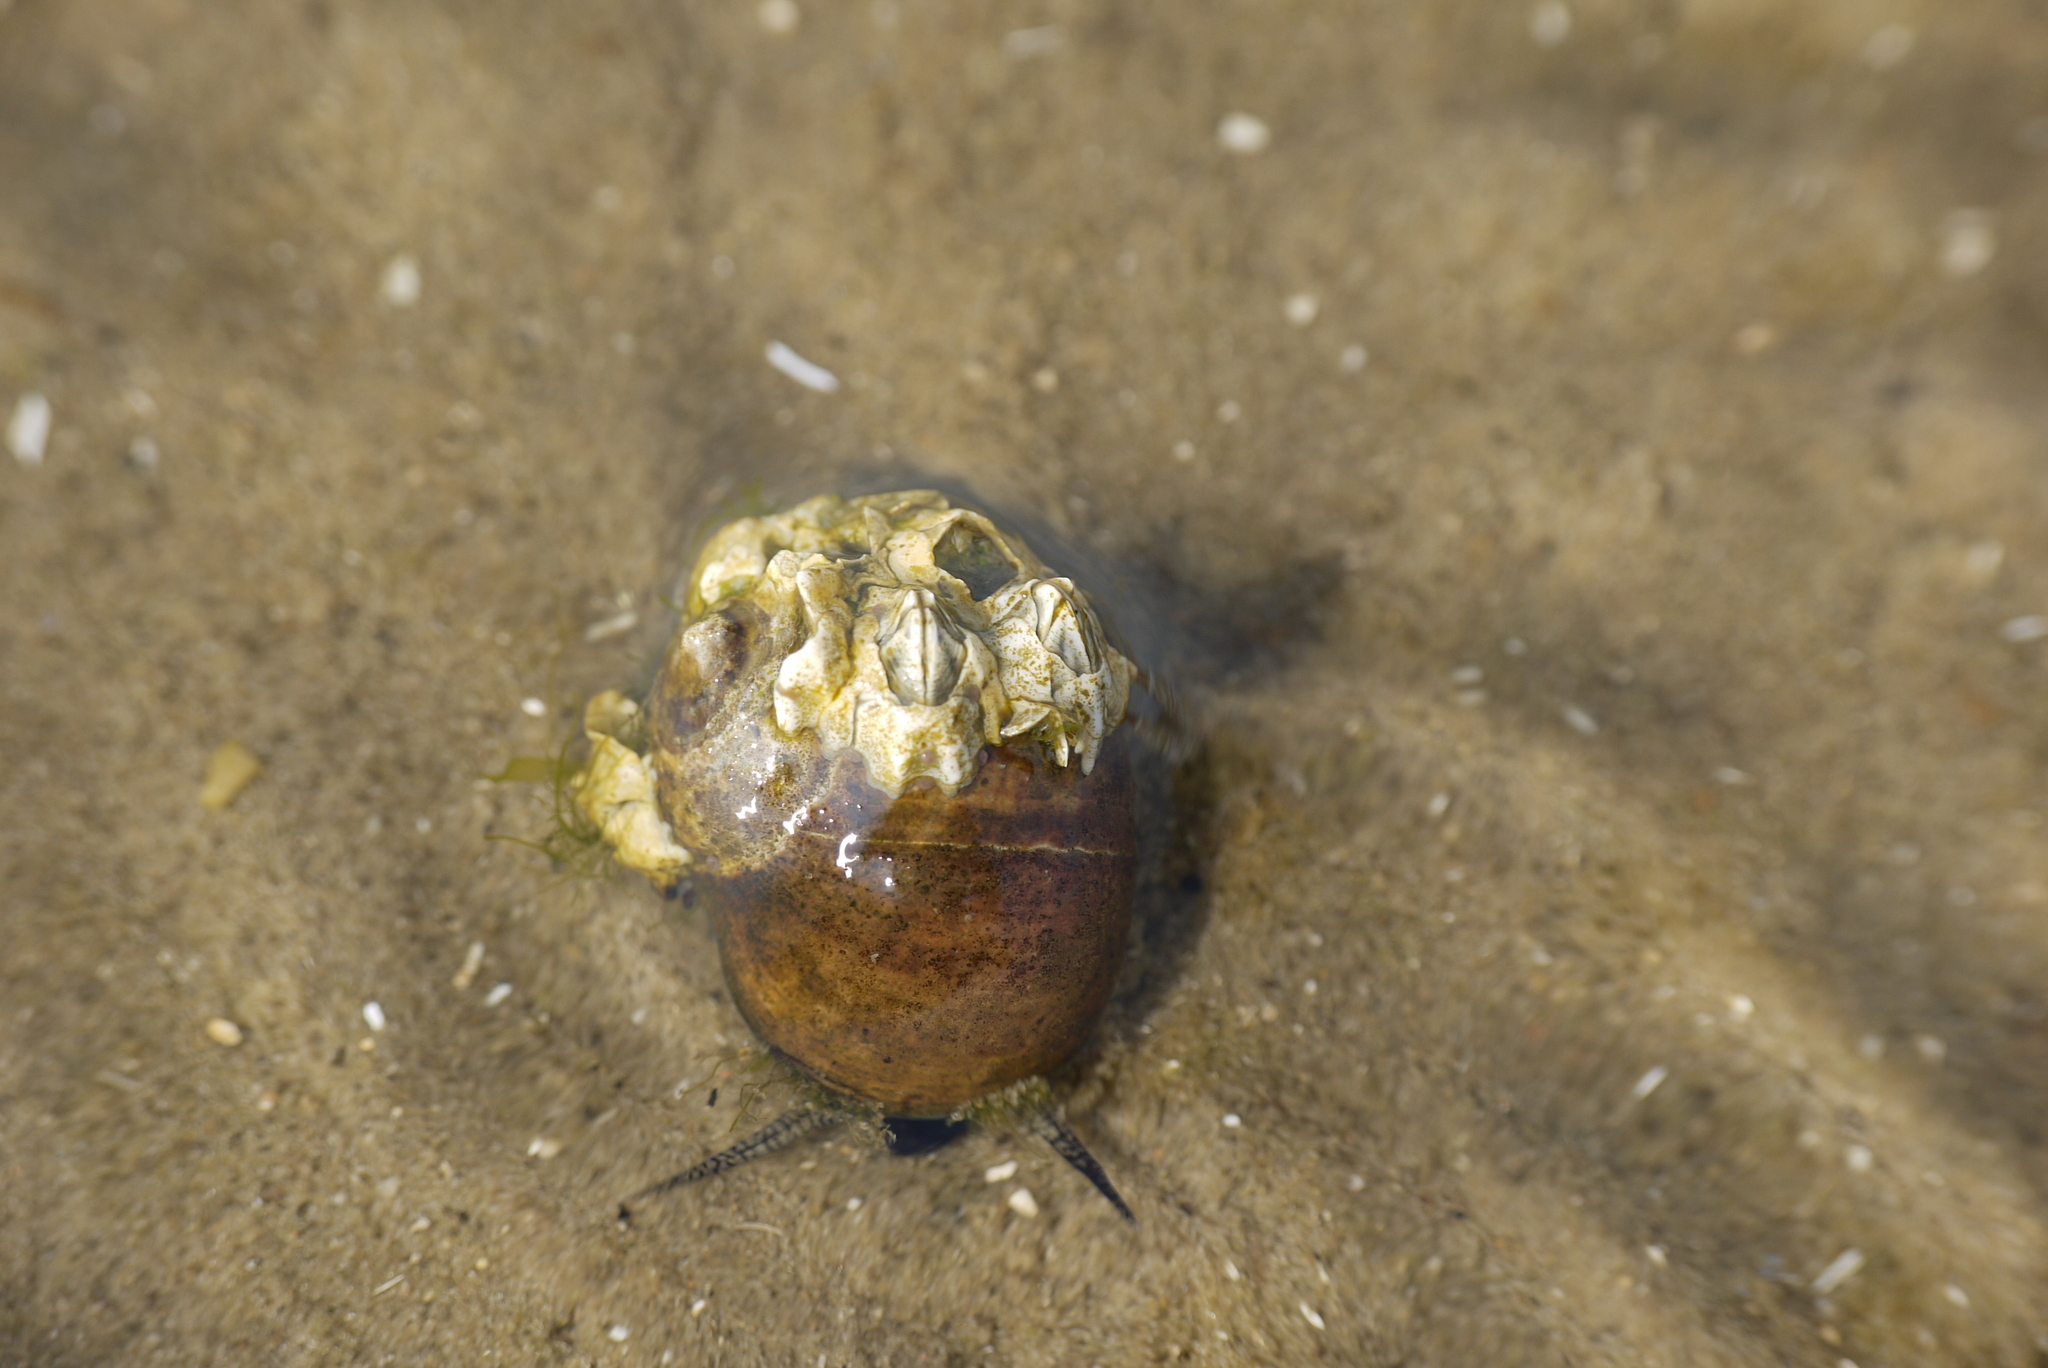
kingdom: Animalia
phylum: Mollusca
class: Gastropoda
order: Littorinimorpha
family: Littorinidae
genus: Littorina
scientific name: Littorina littorea
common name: Common periwinkle
